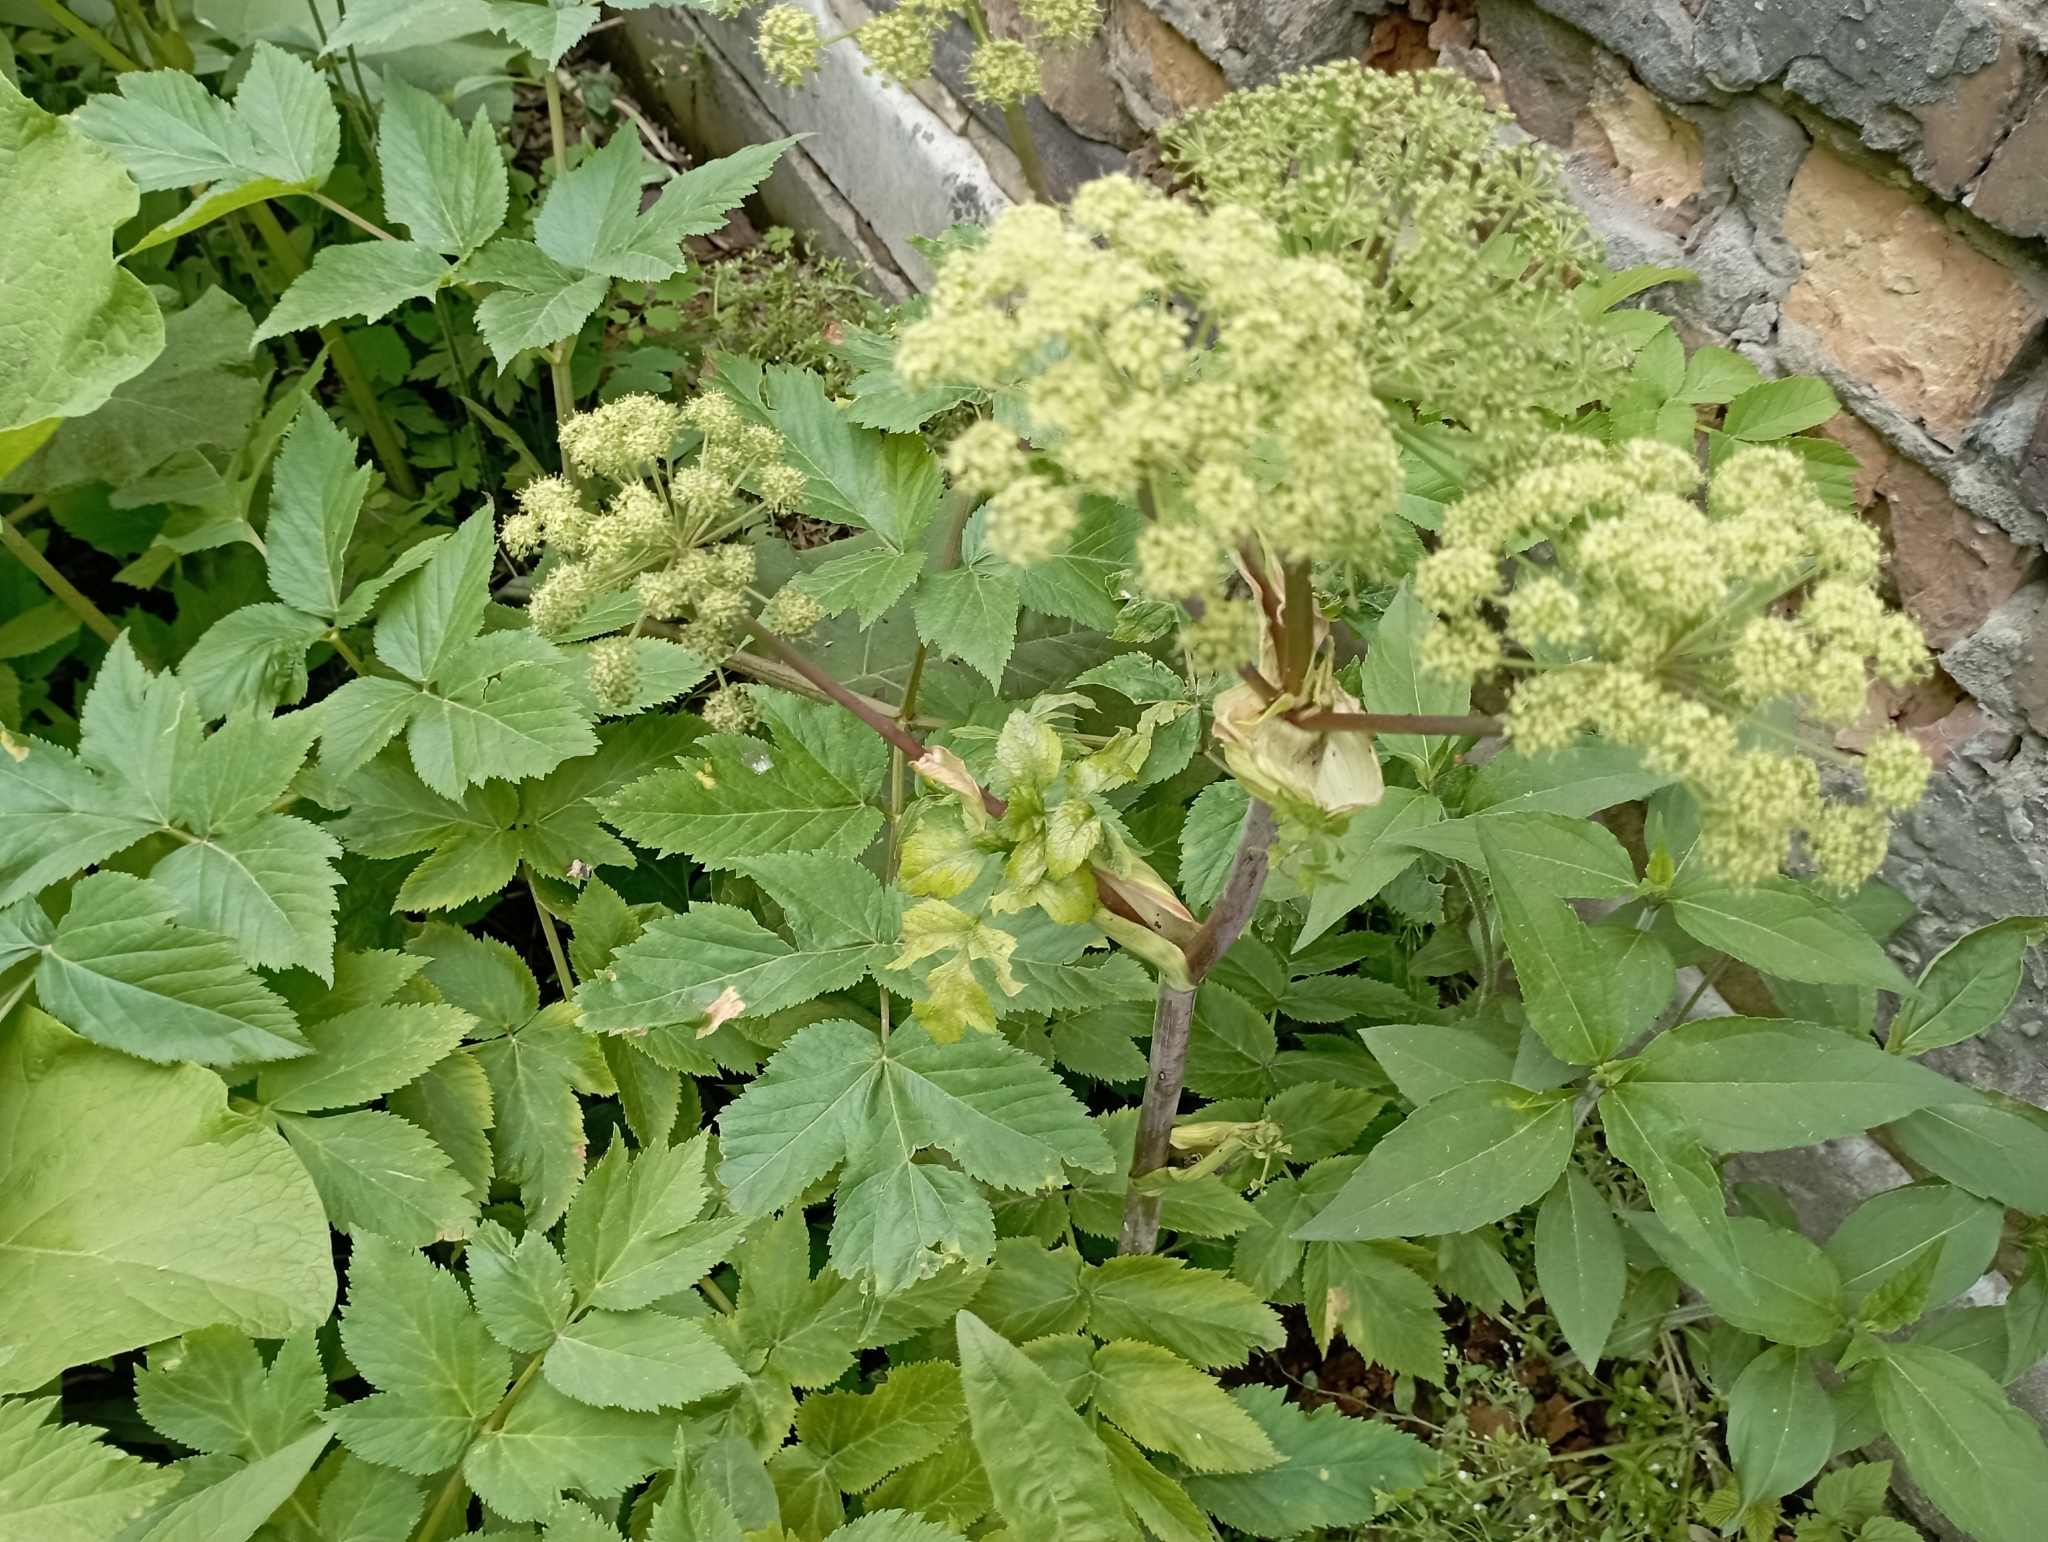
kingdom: Plantae
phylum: Tracheophyta
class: Magnoliopsida
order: Apiales
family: Apiaceae
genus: Angelica
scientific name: Angelica archangelica
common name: Garden angelica
